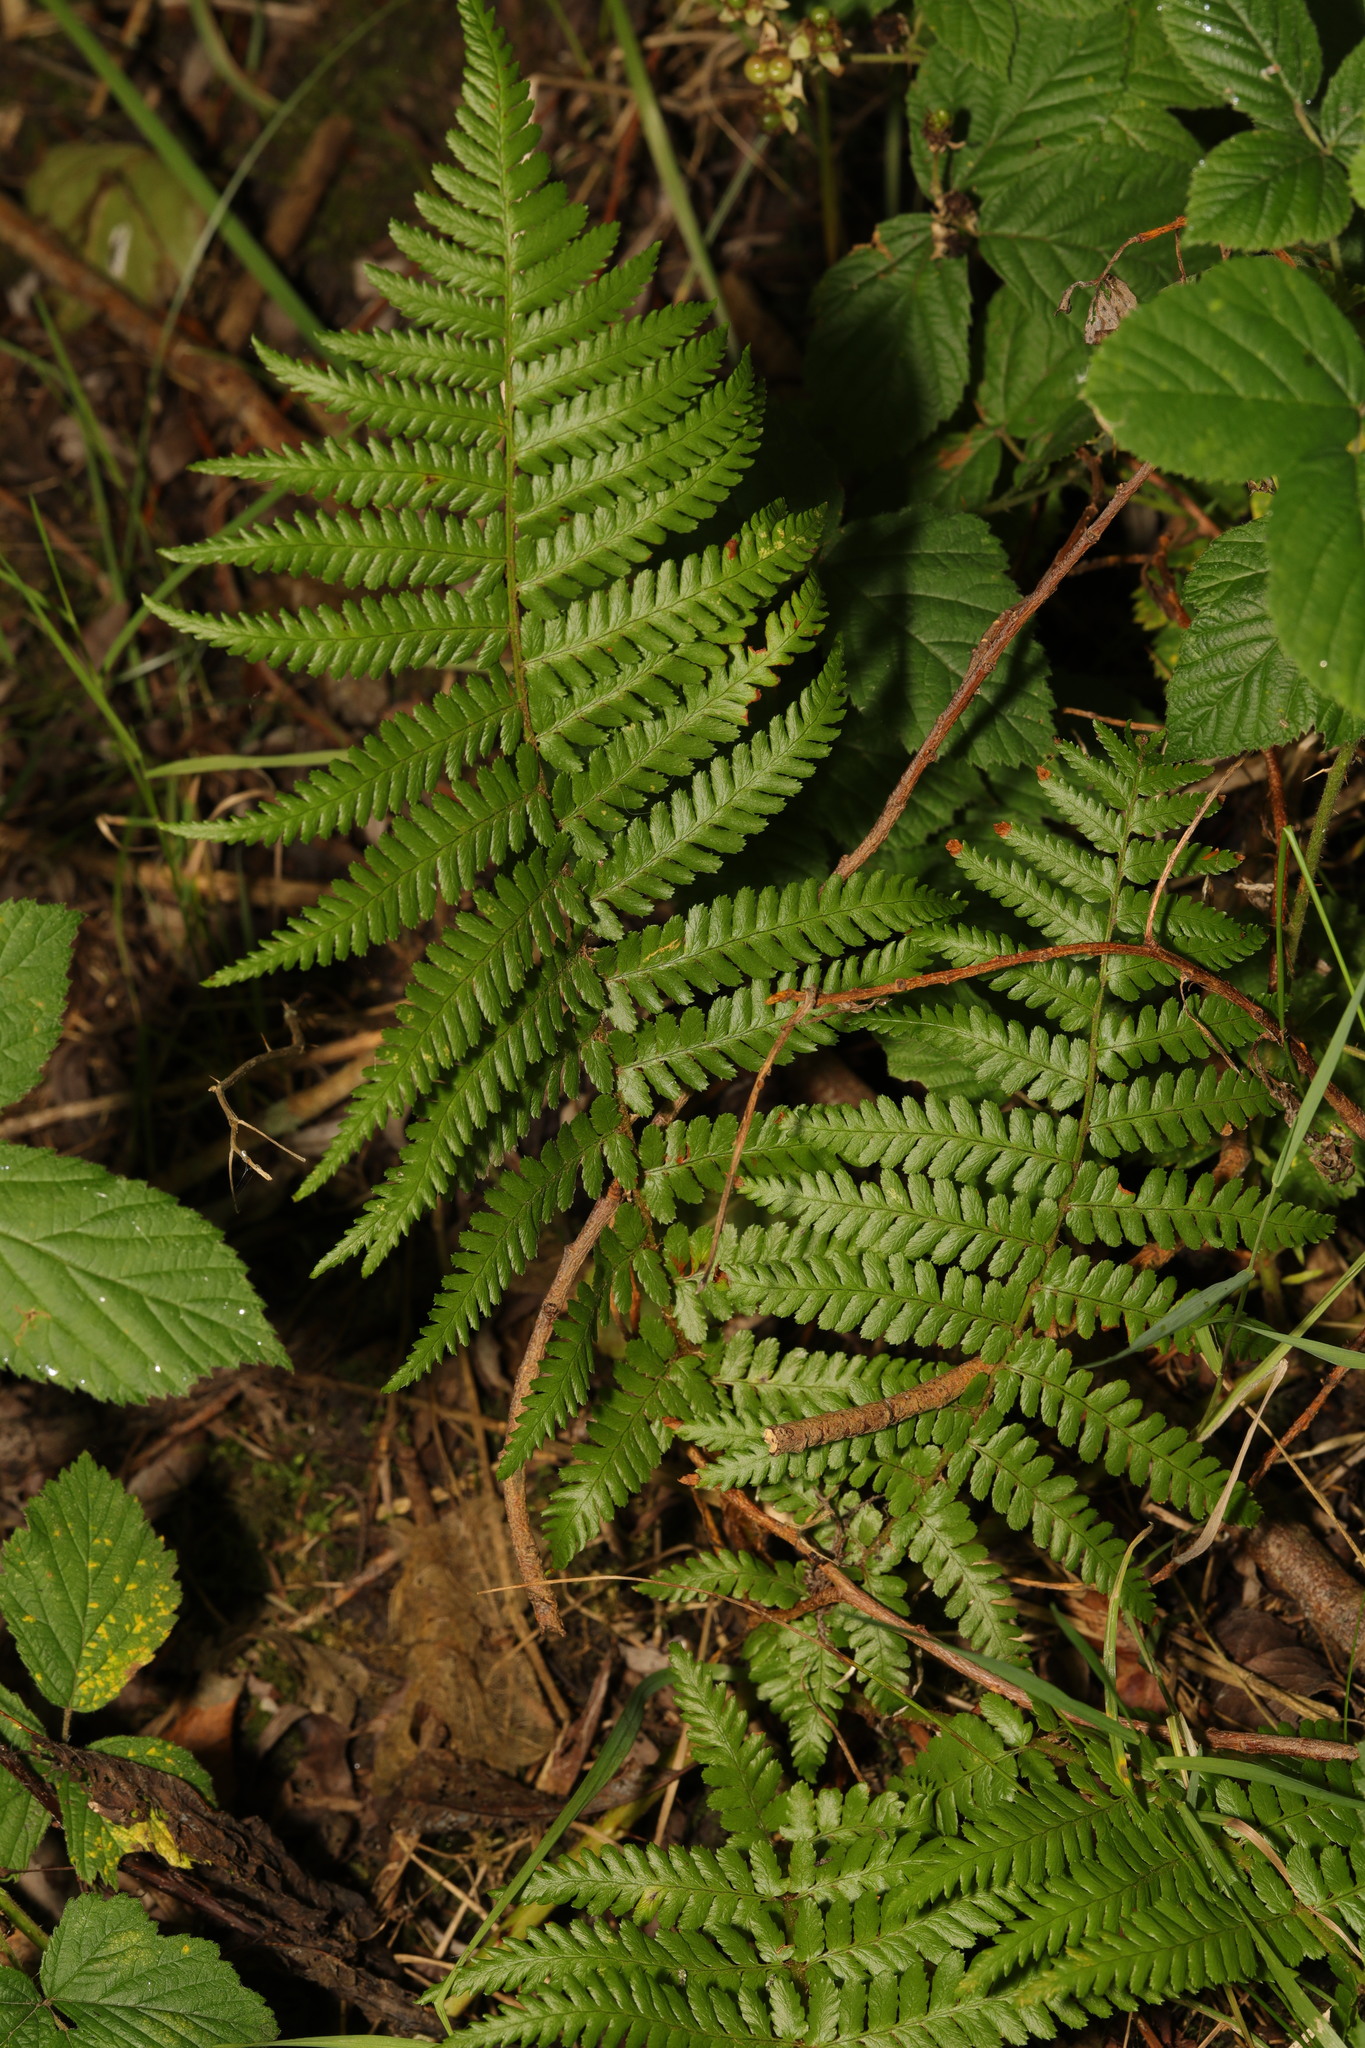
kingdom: Plantae
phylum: Tracheophyta
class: Polypodiopsida
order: Polypodiales
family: Dryopteridaceae
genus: Dryopteris
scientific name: Dryopteris filix-mas
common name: Male fern
